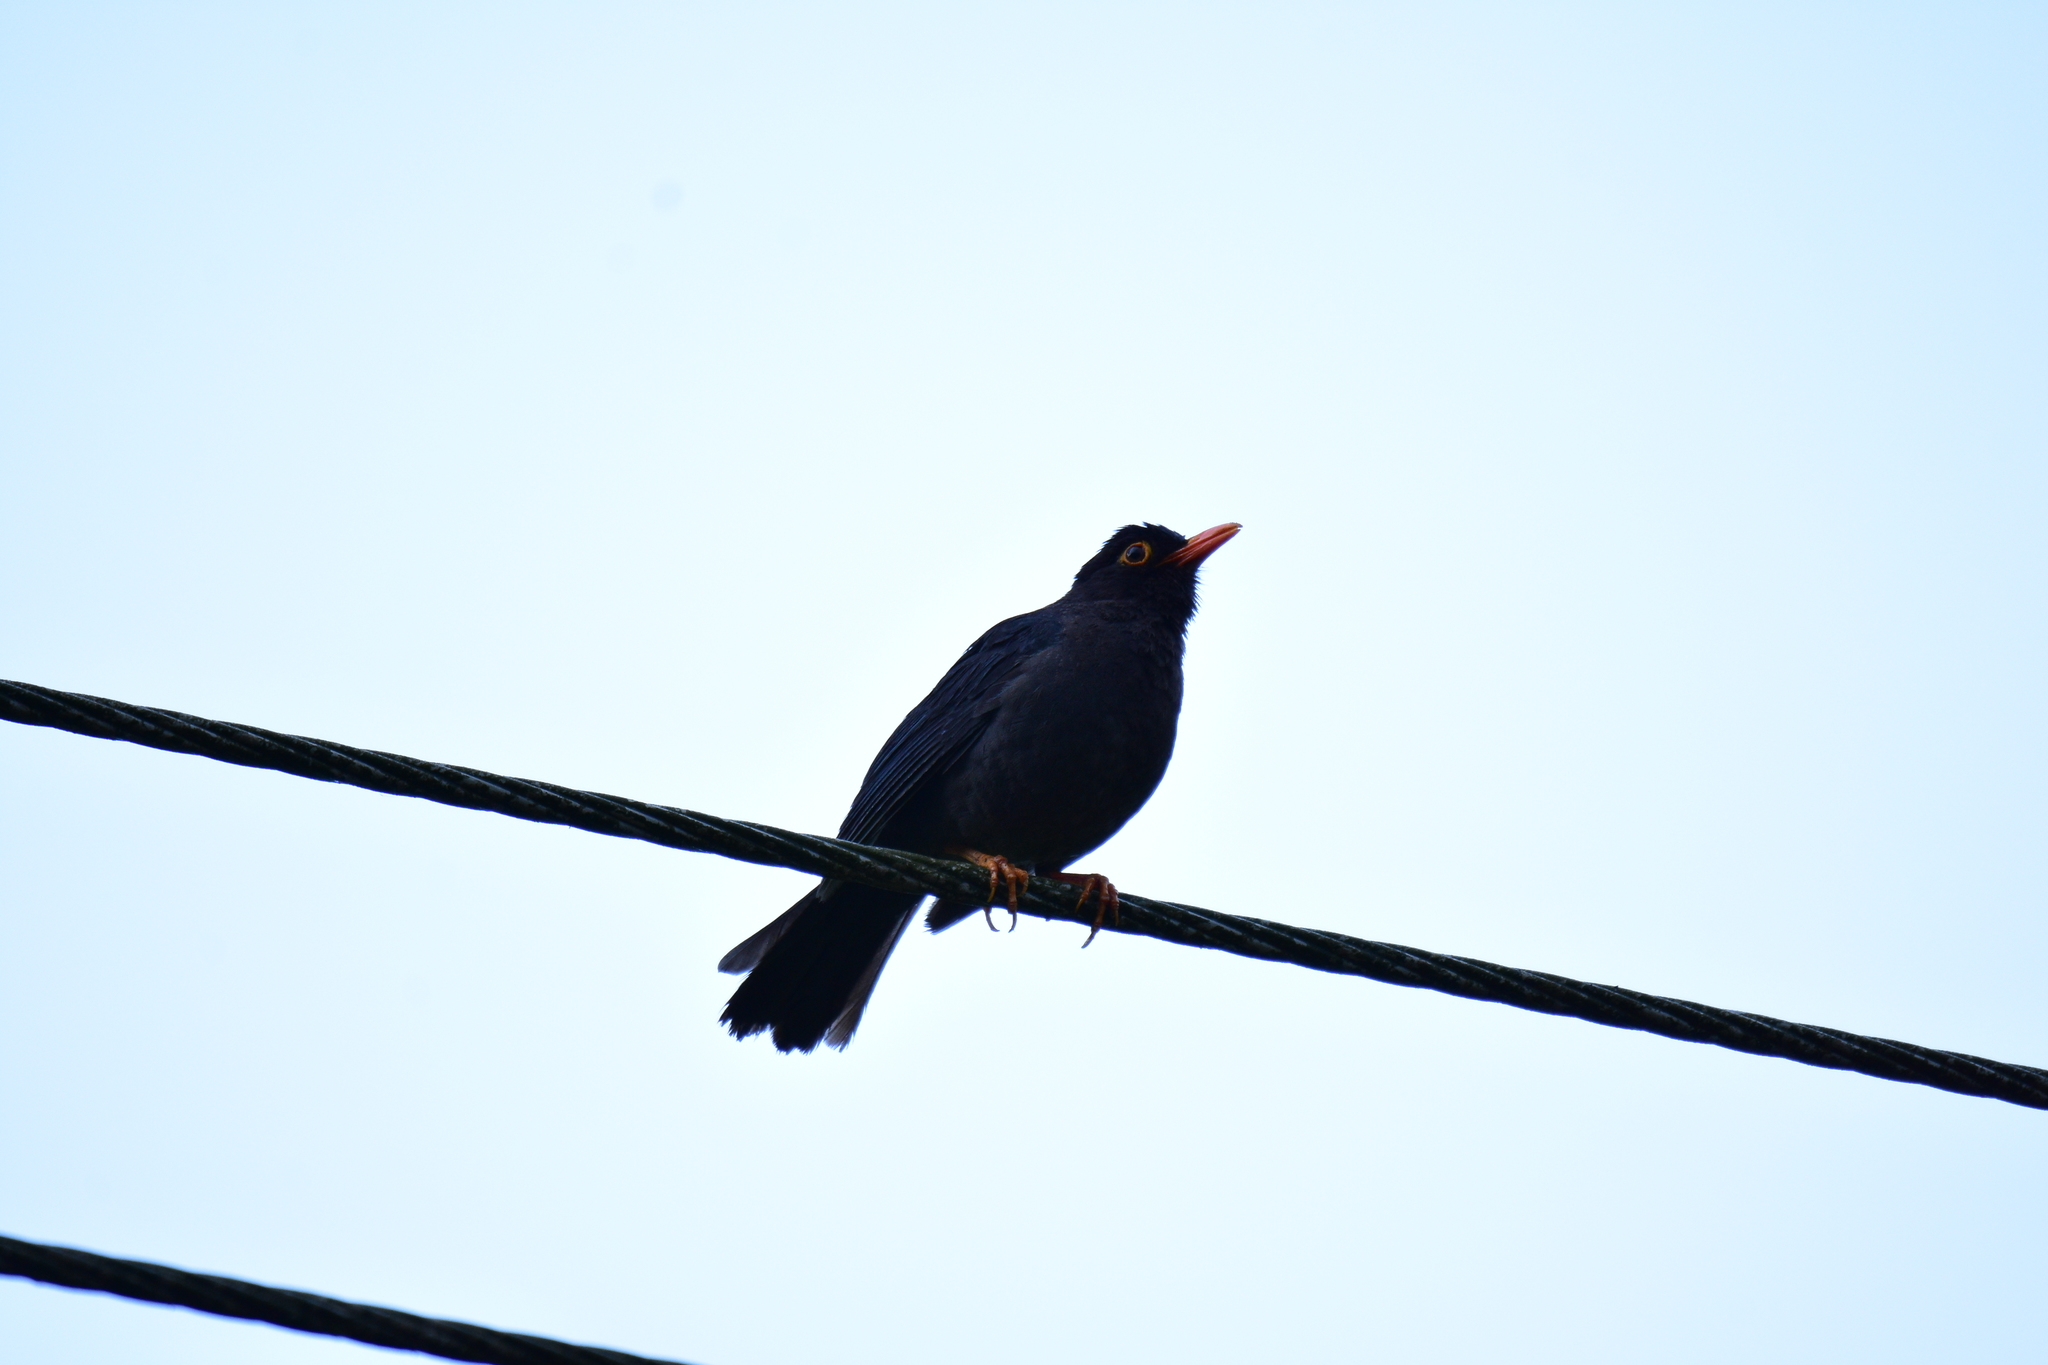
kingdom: Animalia
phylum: Chordata
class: Aves
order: Passeriformes
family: Turdidae
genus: Turdus
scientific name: Turdus simillimus
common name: Indian blackbird
